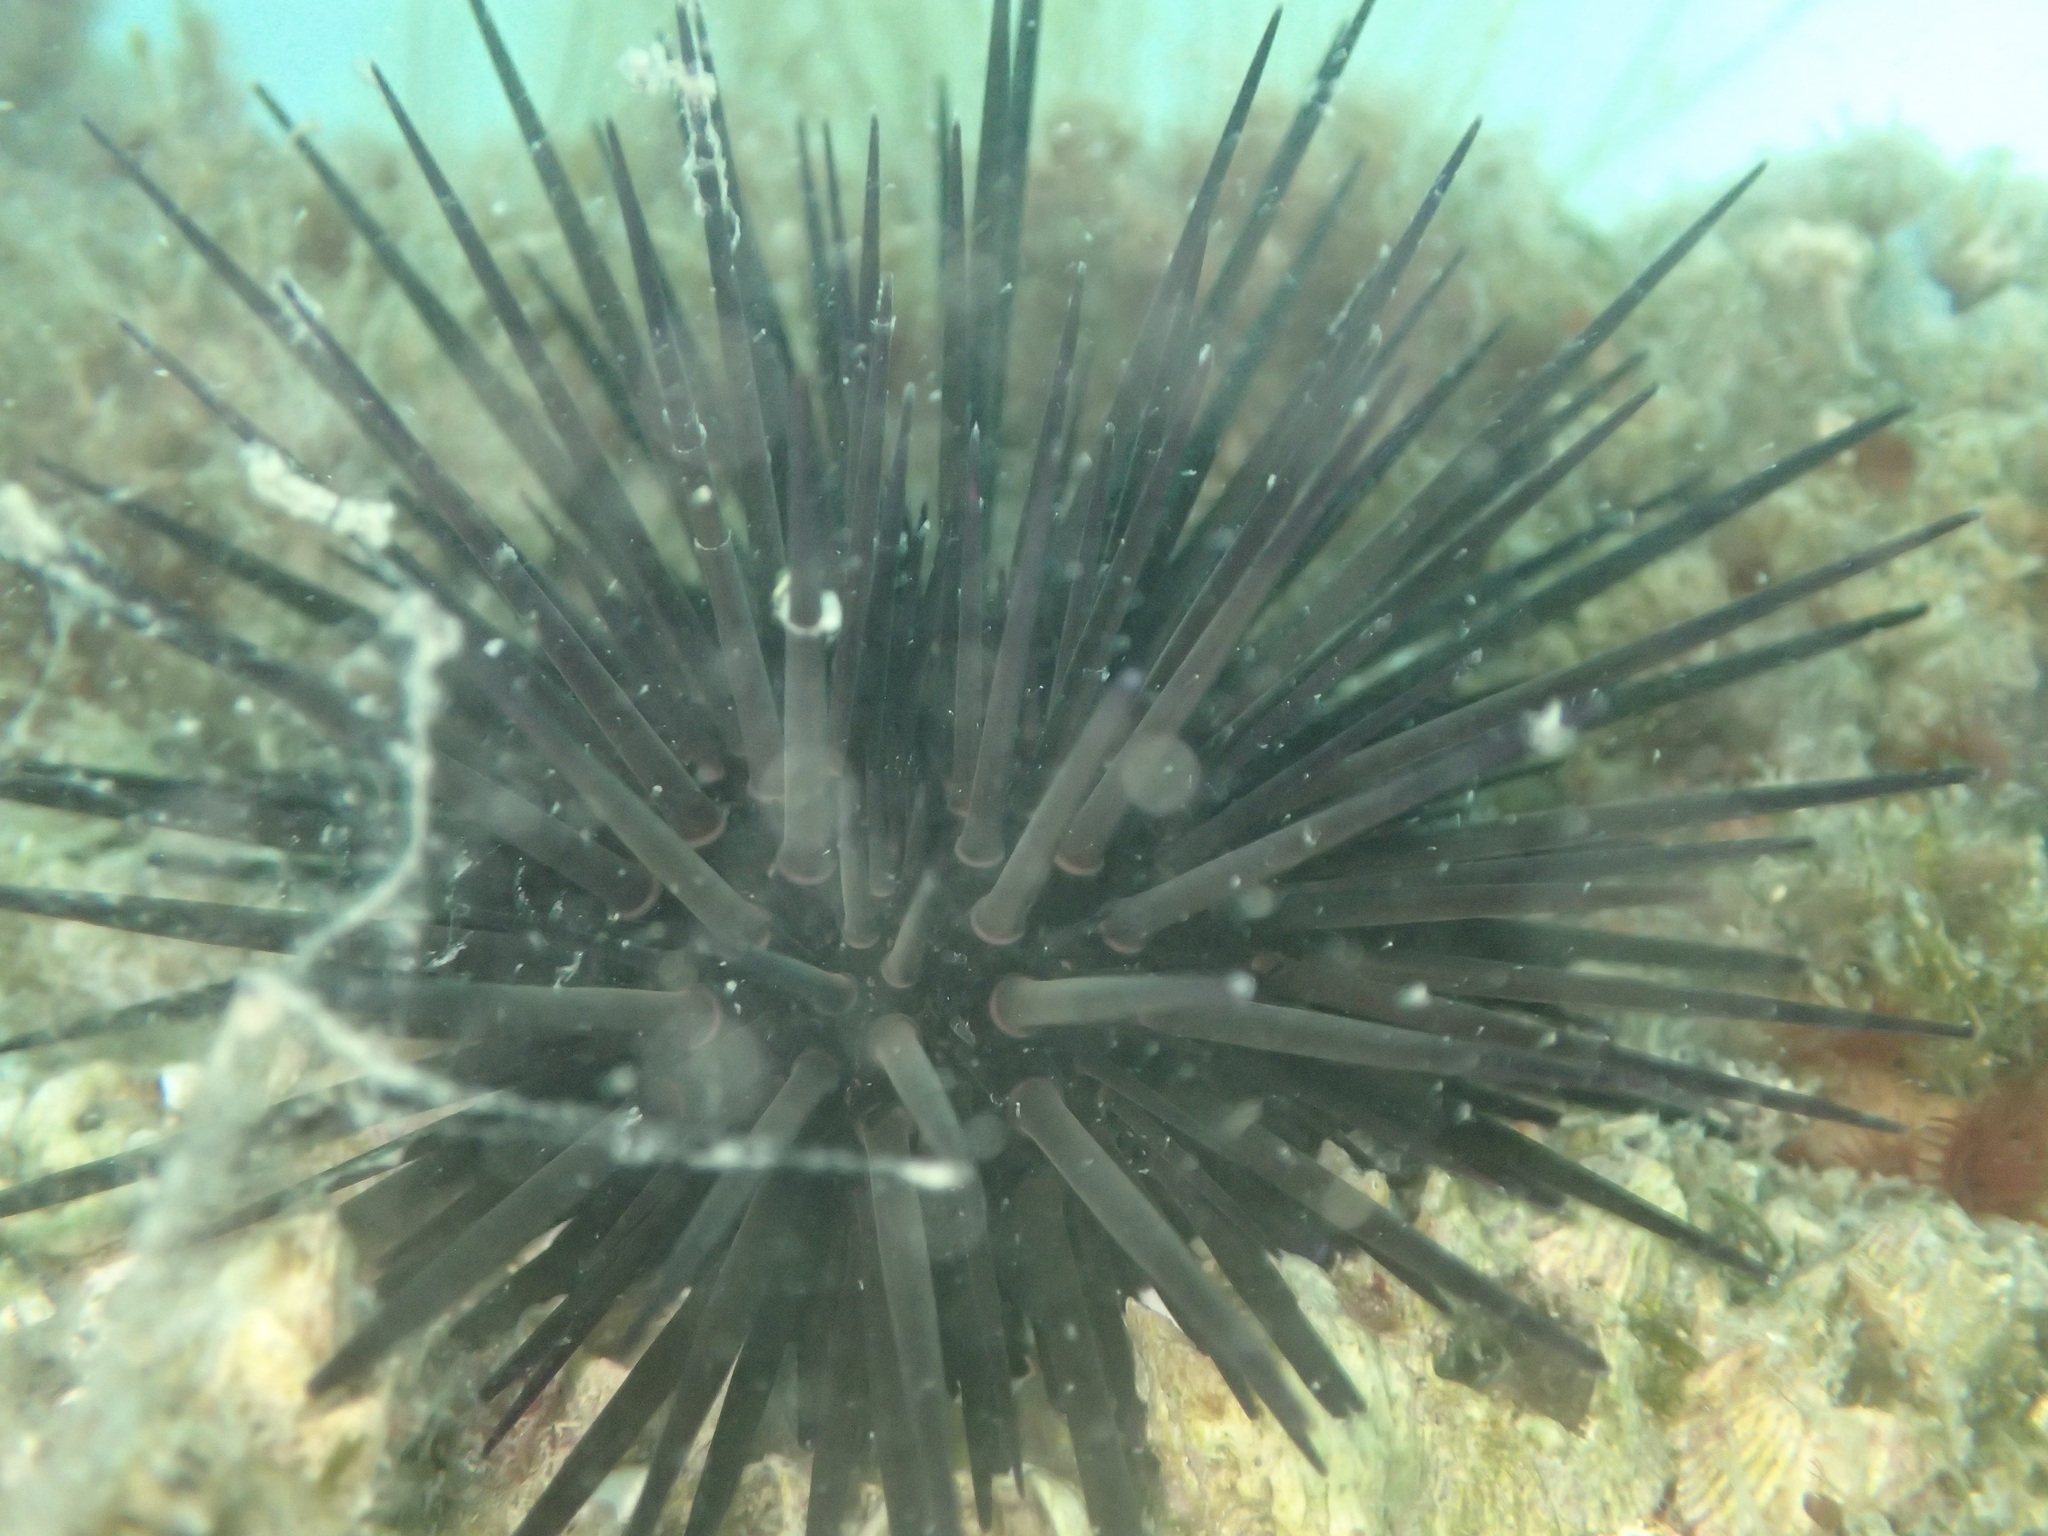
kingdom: Animalia
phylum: Echinodermata
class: Echinoidea
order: Camarodonta
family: Echinometridae
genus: Echinometra
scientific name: Echinometra vanbrunti
